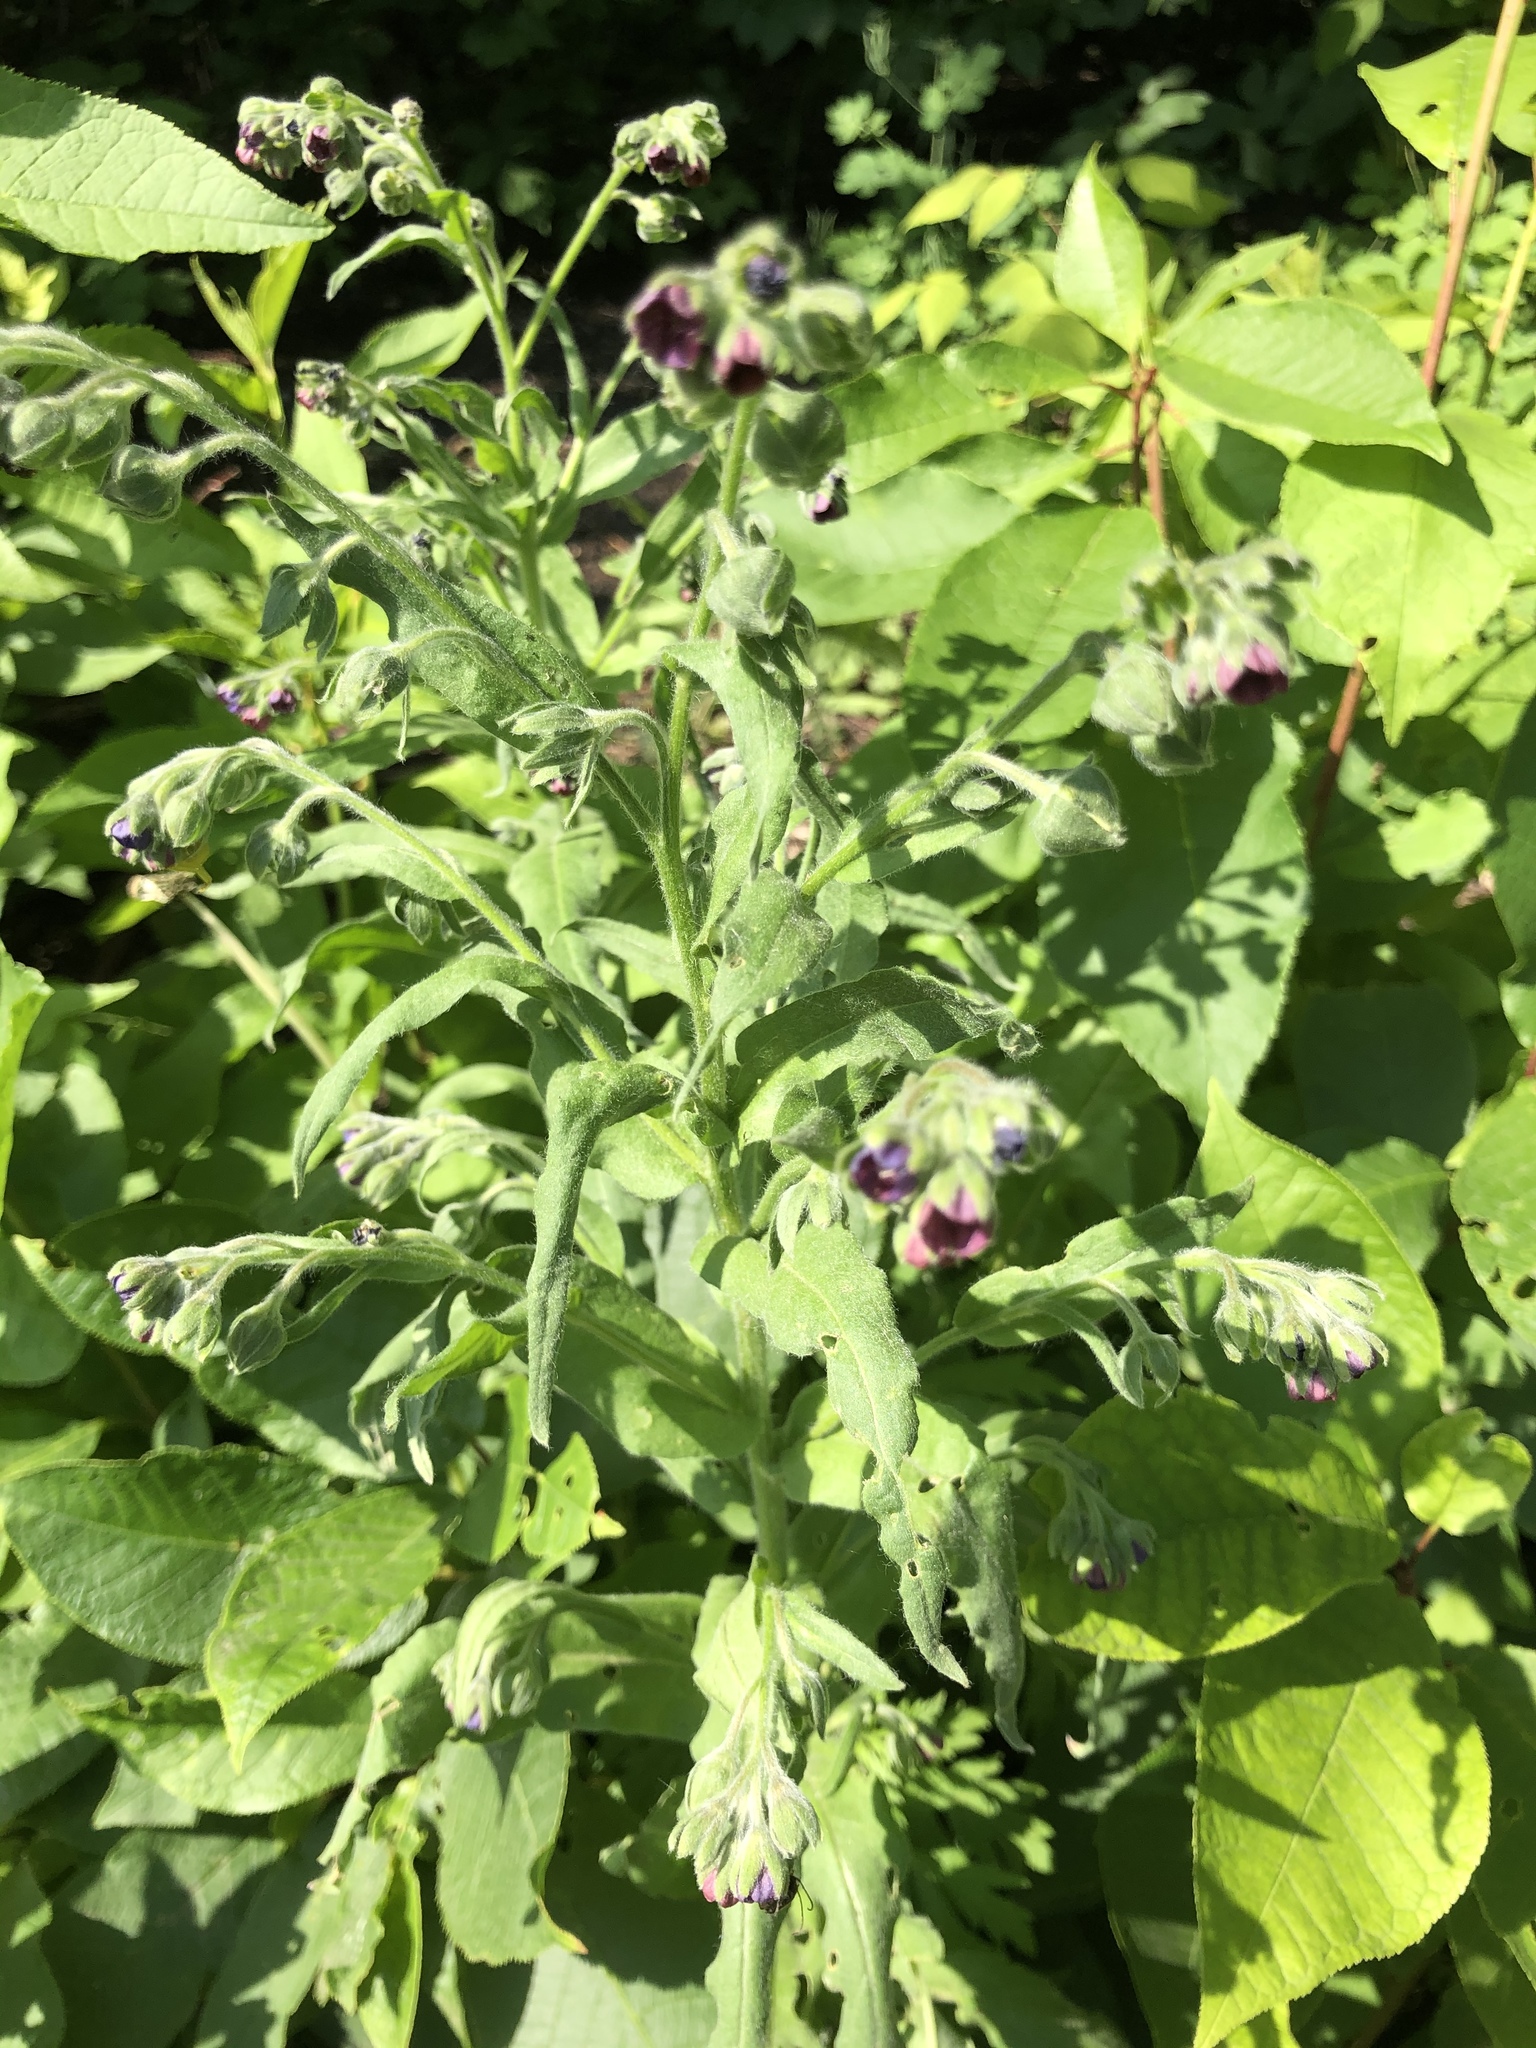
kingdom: Plantae
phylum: Tracheophyta
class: Magnoliopsida
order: Boraginales
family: Boraginaceae
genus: Cynoglossum
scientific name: Cynoglossum officinale
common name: Hound's-tongue
